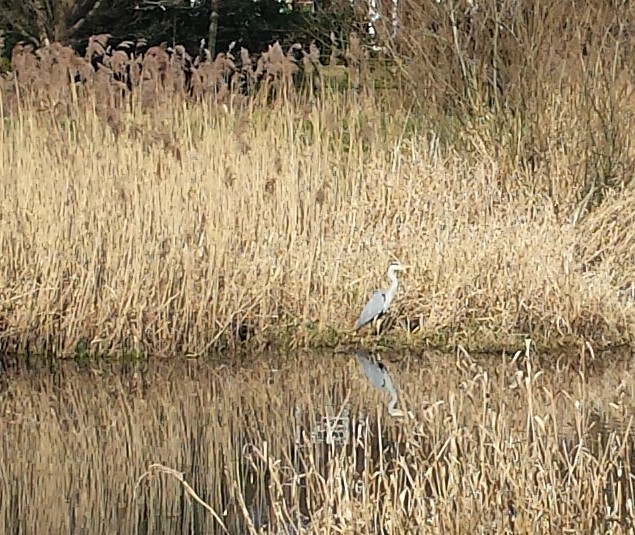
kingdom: Animalia
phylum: Chordata
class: Aves
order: Pelecaniformes
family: Ardeidae
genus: Ardea
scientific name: Ardea cinerea
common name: Grey heron
